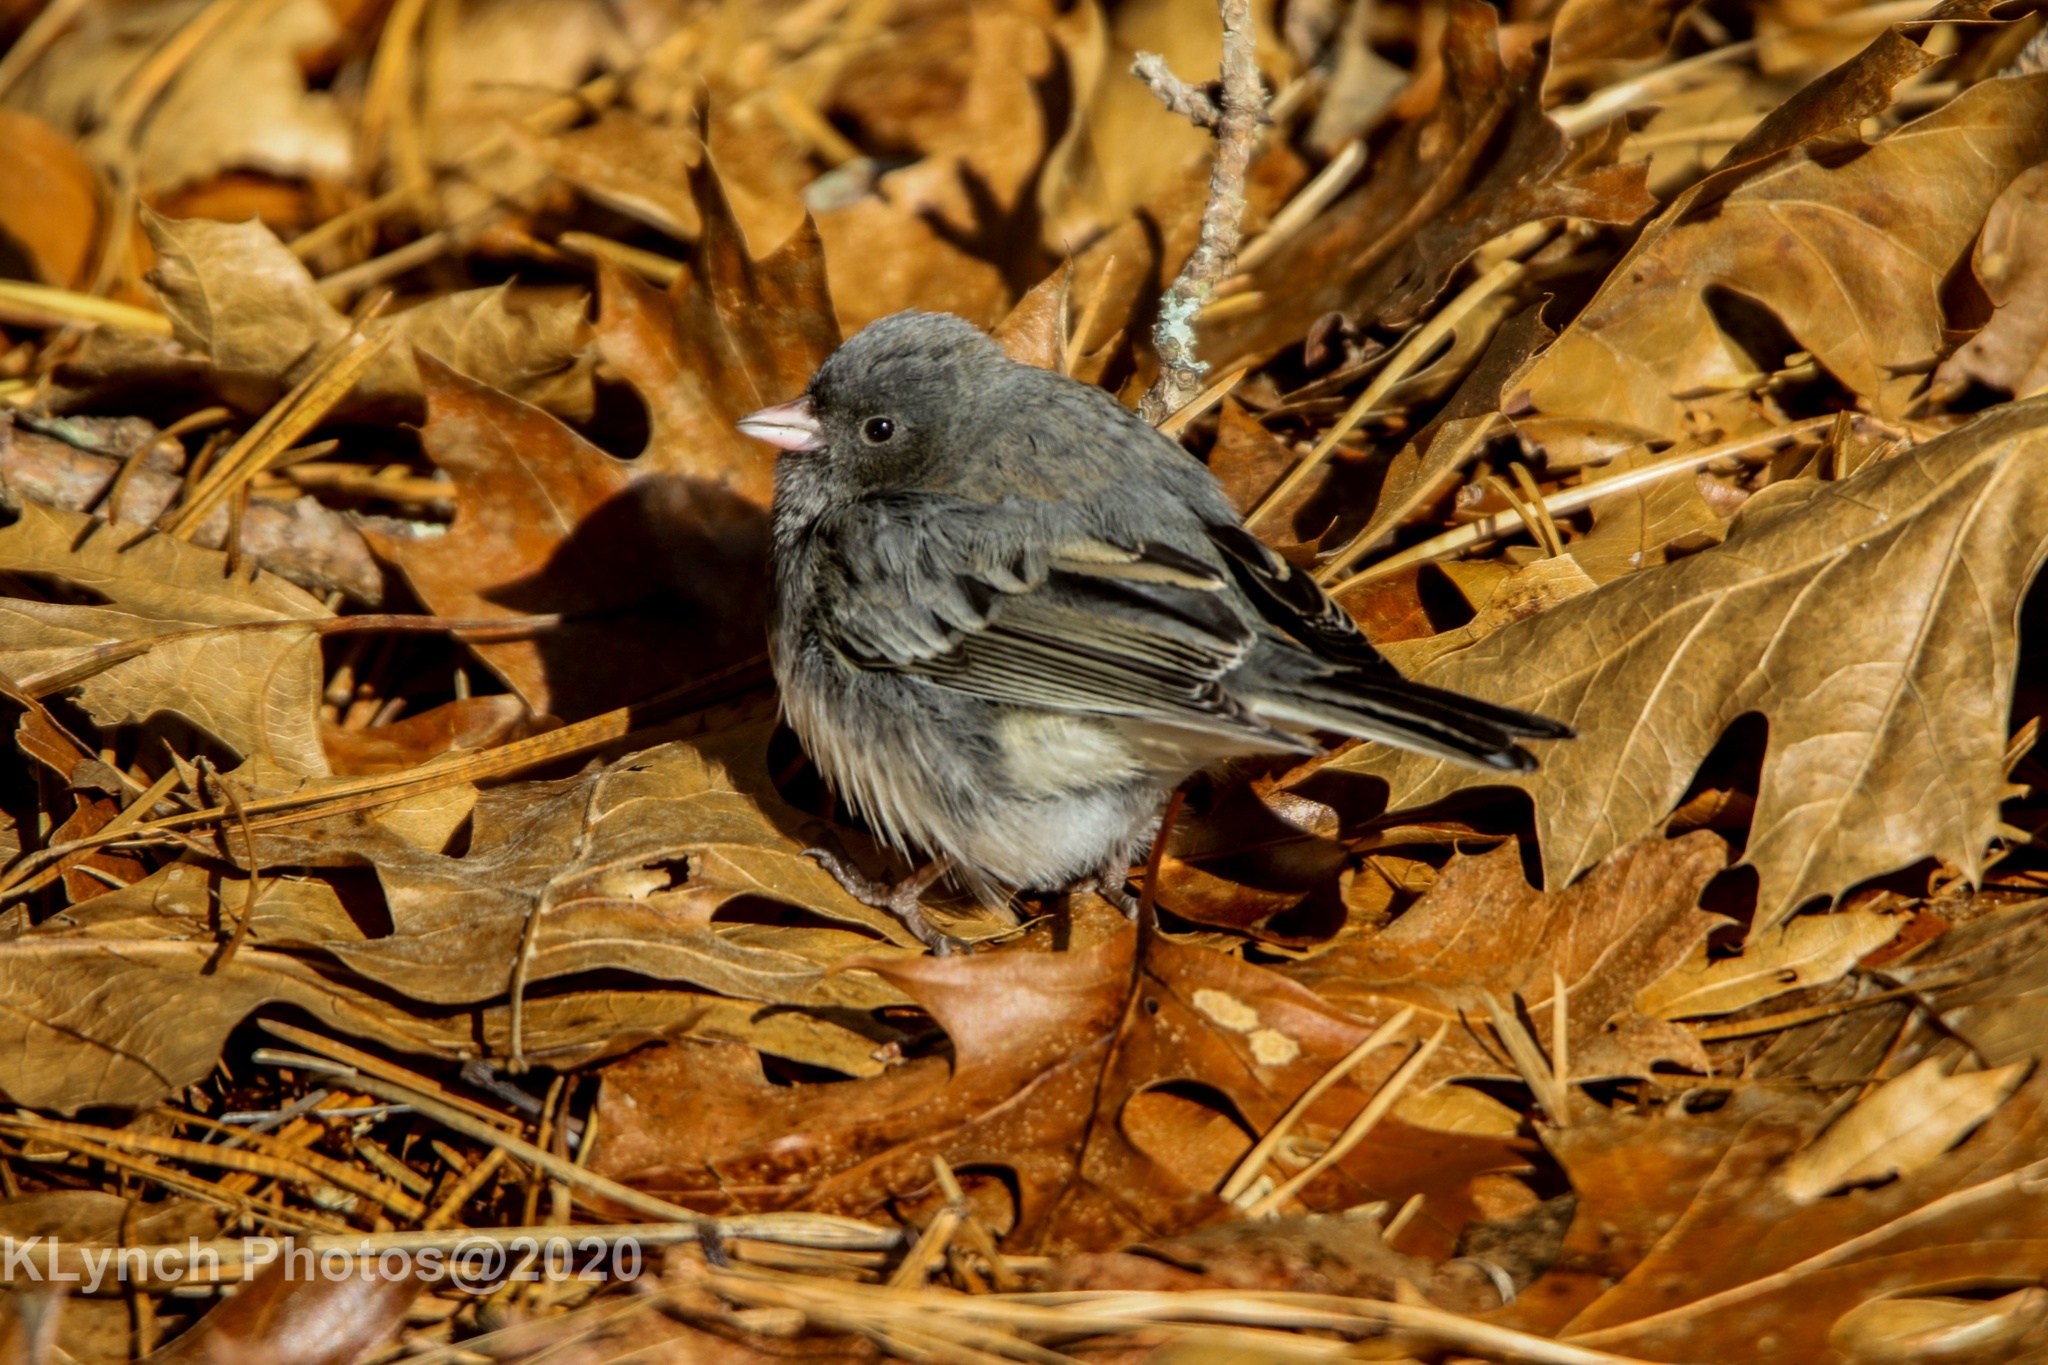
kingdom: Animalia
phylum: Chordata
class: Aves
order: Passeriformes
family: Passerellidae
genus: Junco
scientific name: Junco hyemalis
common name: Dark-eyed junco
